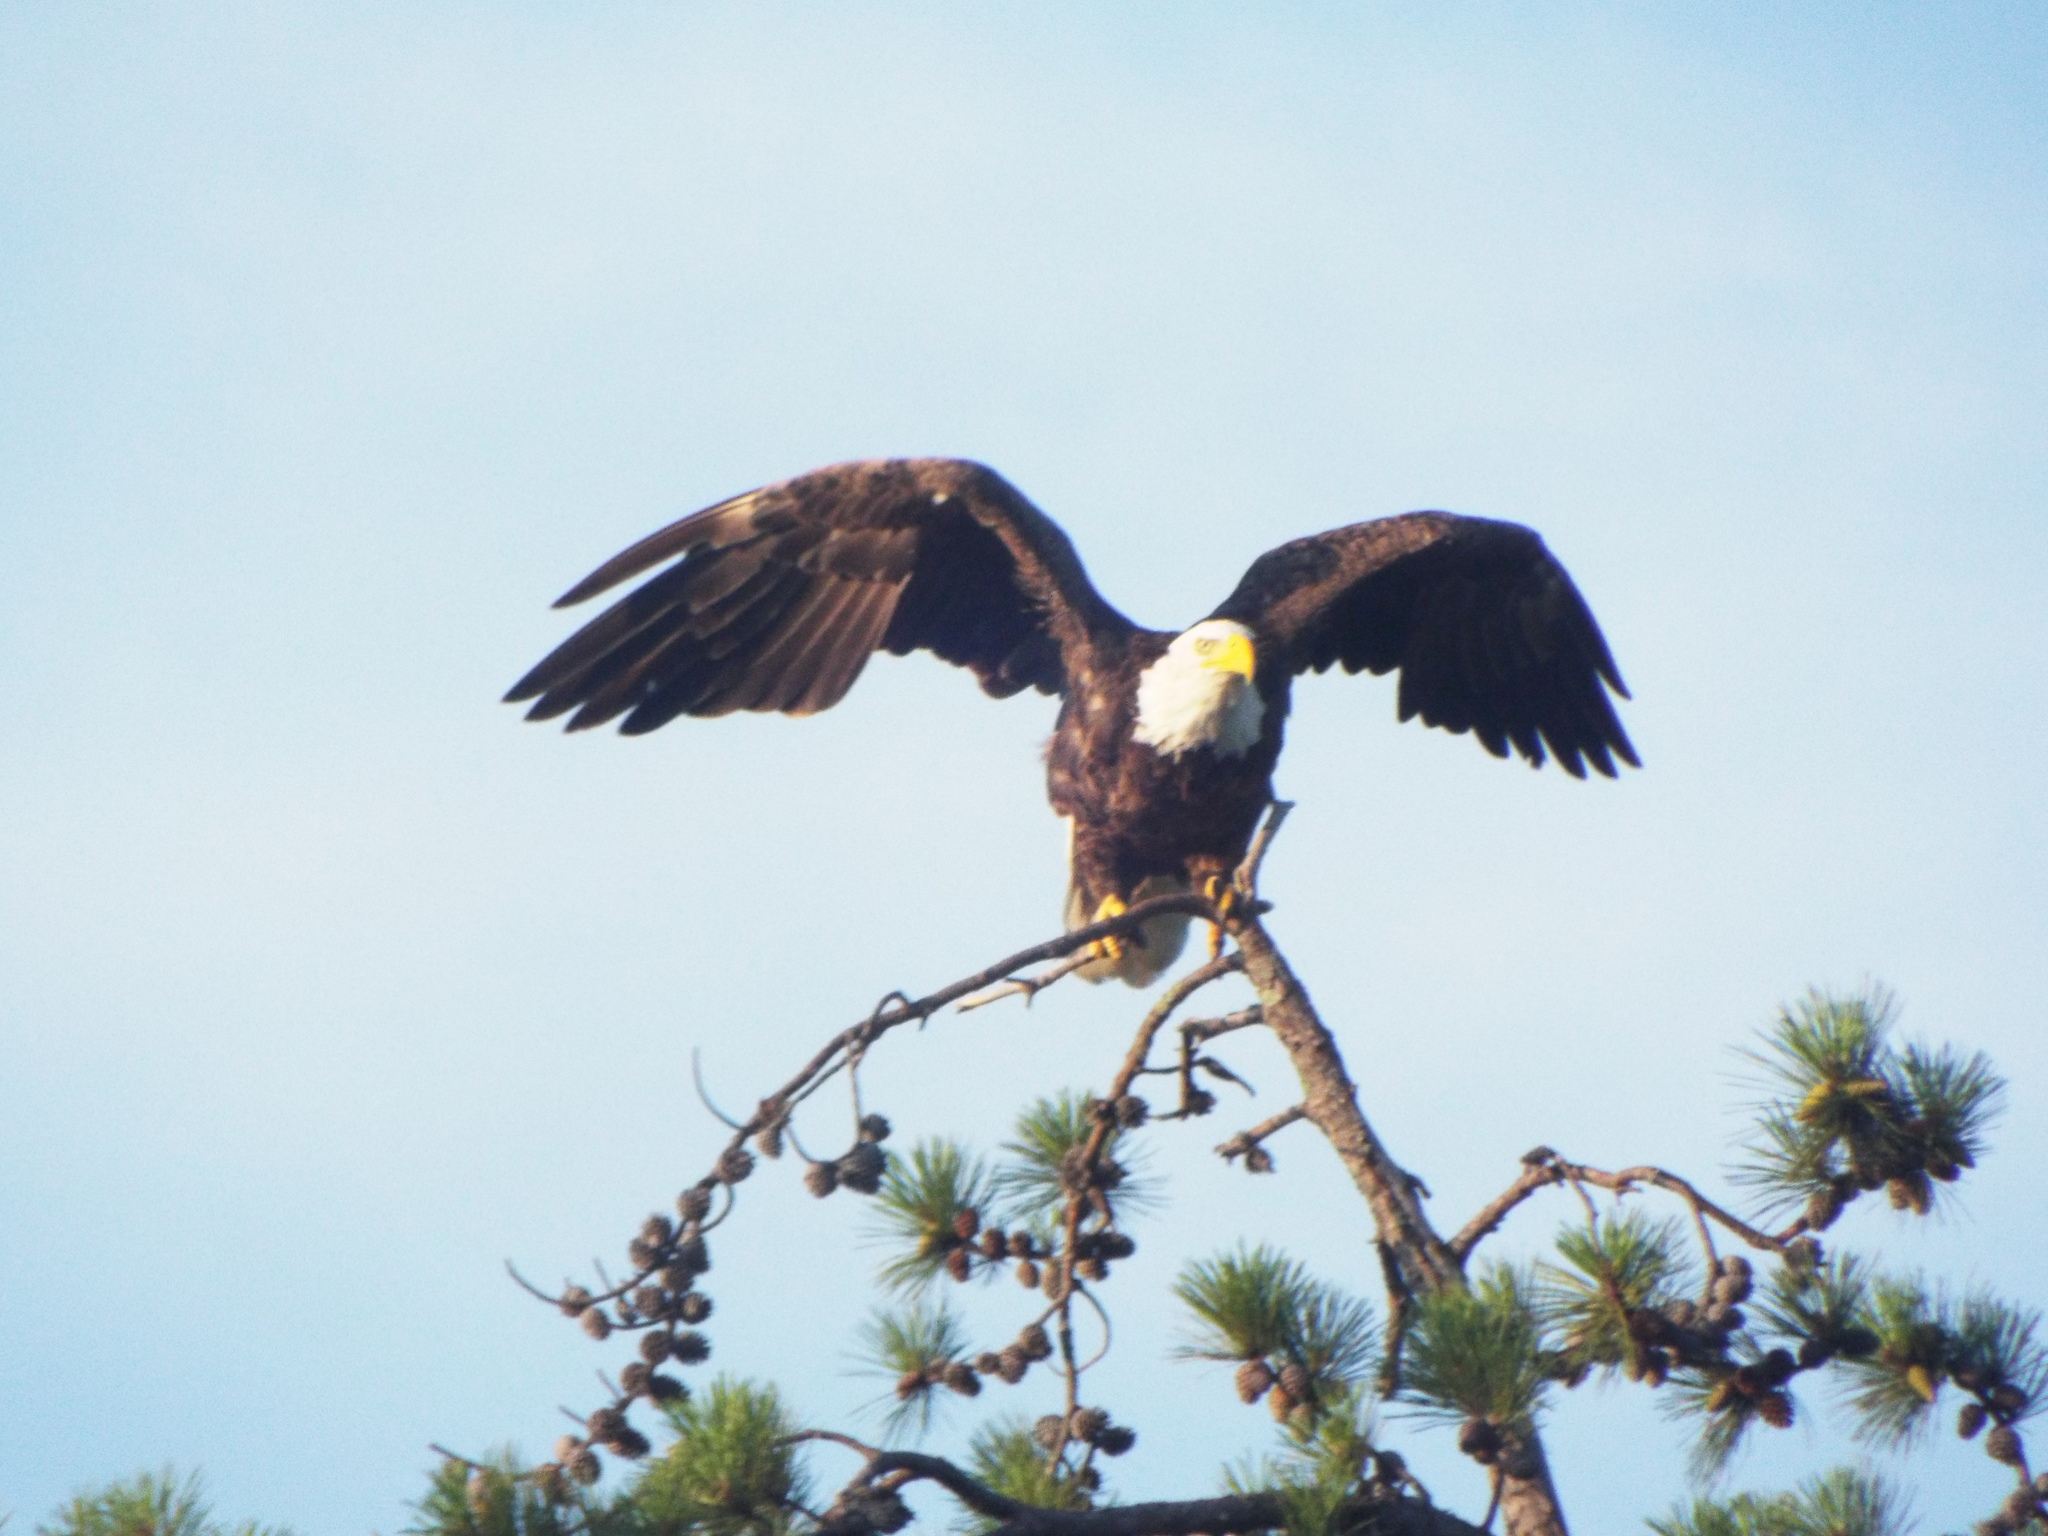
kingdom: Animalia
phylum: Chordata
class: Aves
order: Accipitriformes
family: Accipitridae
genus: Haliaeetus
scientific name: Haliaeetus leucocephalus
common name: Bald eagle
